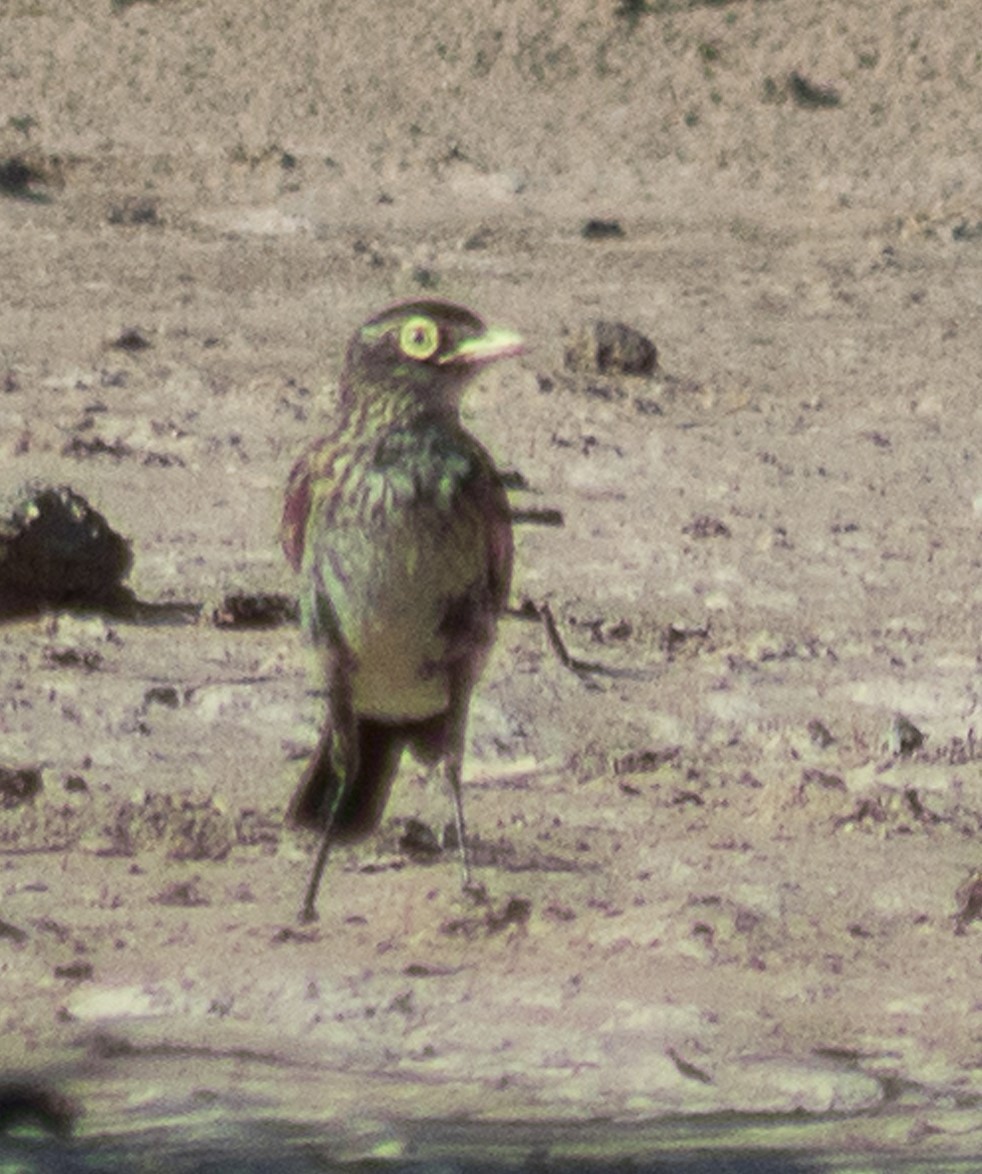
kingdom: Animalia
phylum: Chordata
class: Aves
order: Passeriformes
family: Tyrannidae
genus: Hymenops
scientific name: Hymenops perspicillatus
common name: Spectacled tyrant
